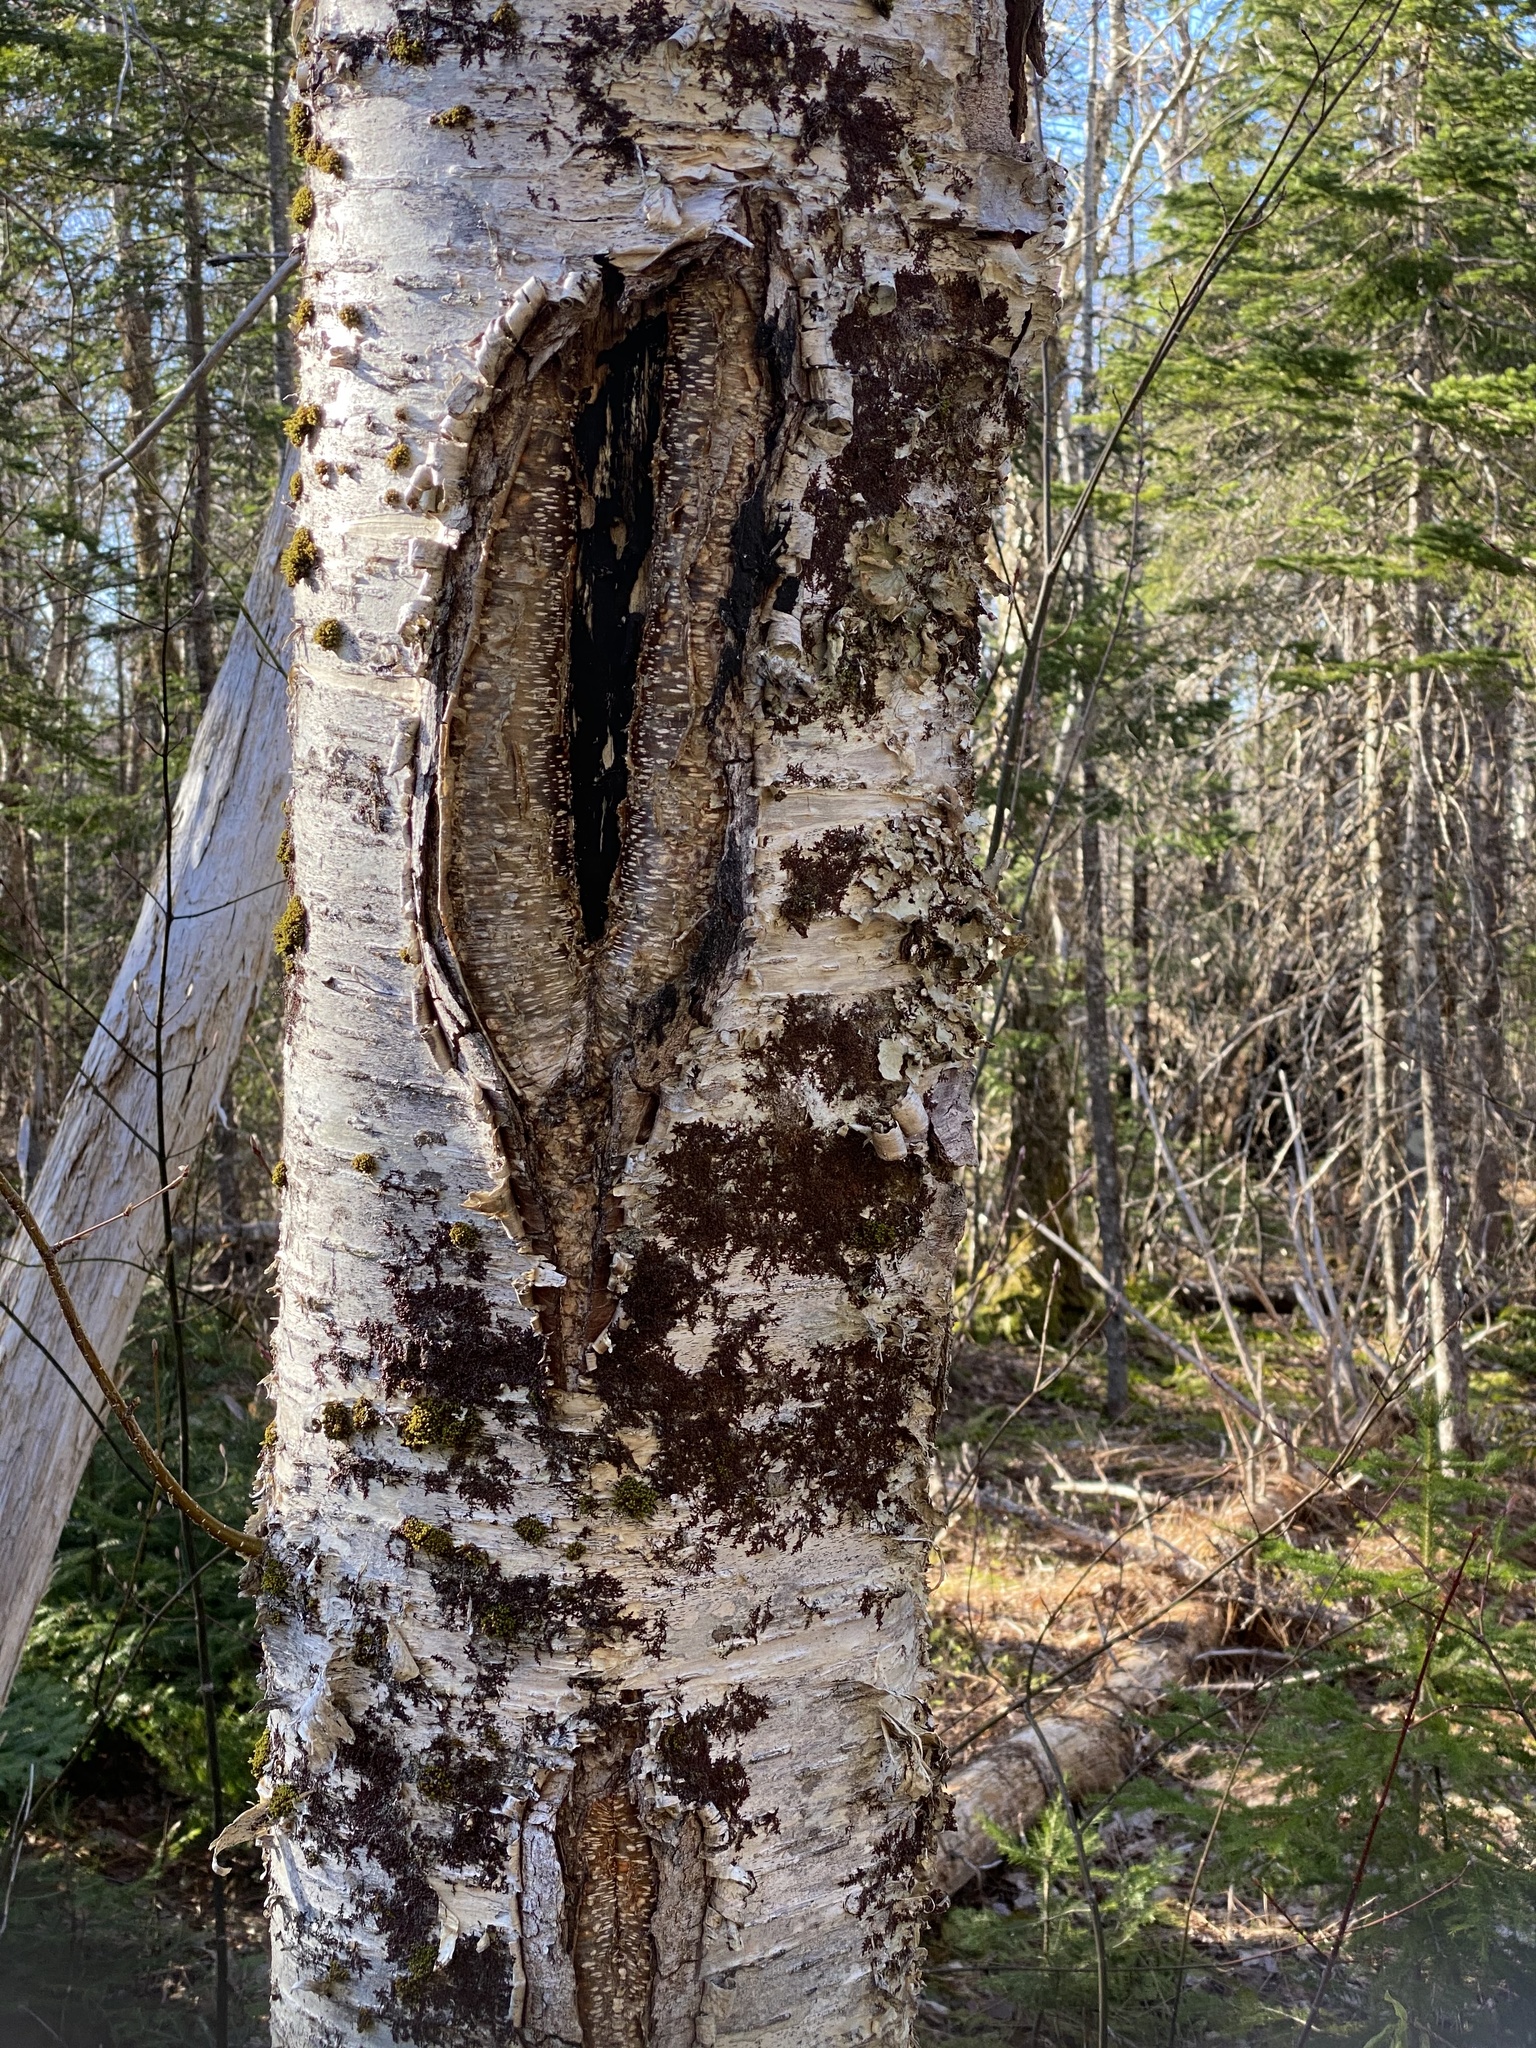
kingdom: Plantae
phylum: Tracheophyta
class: Magnoliopsida
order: Fagales
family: Betulaceae
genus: Betula
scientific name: Betula papyrifera
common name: Paper birch
